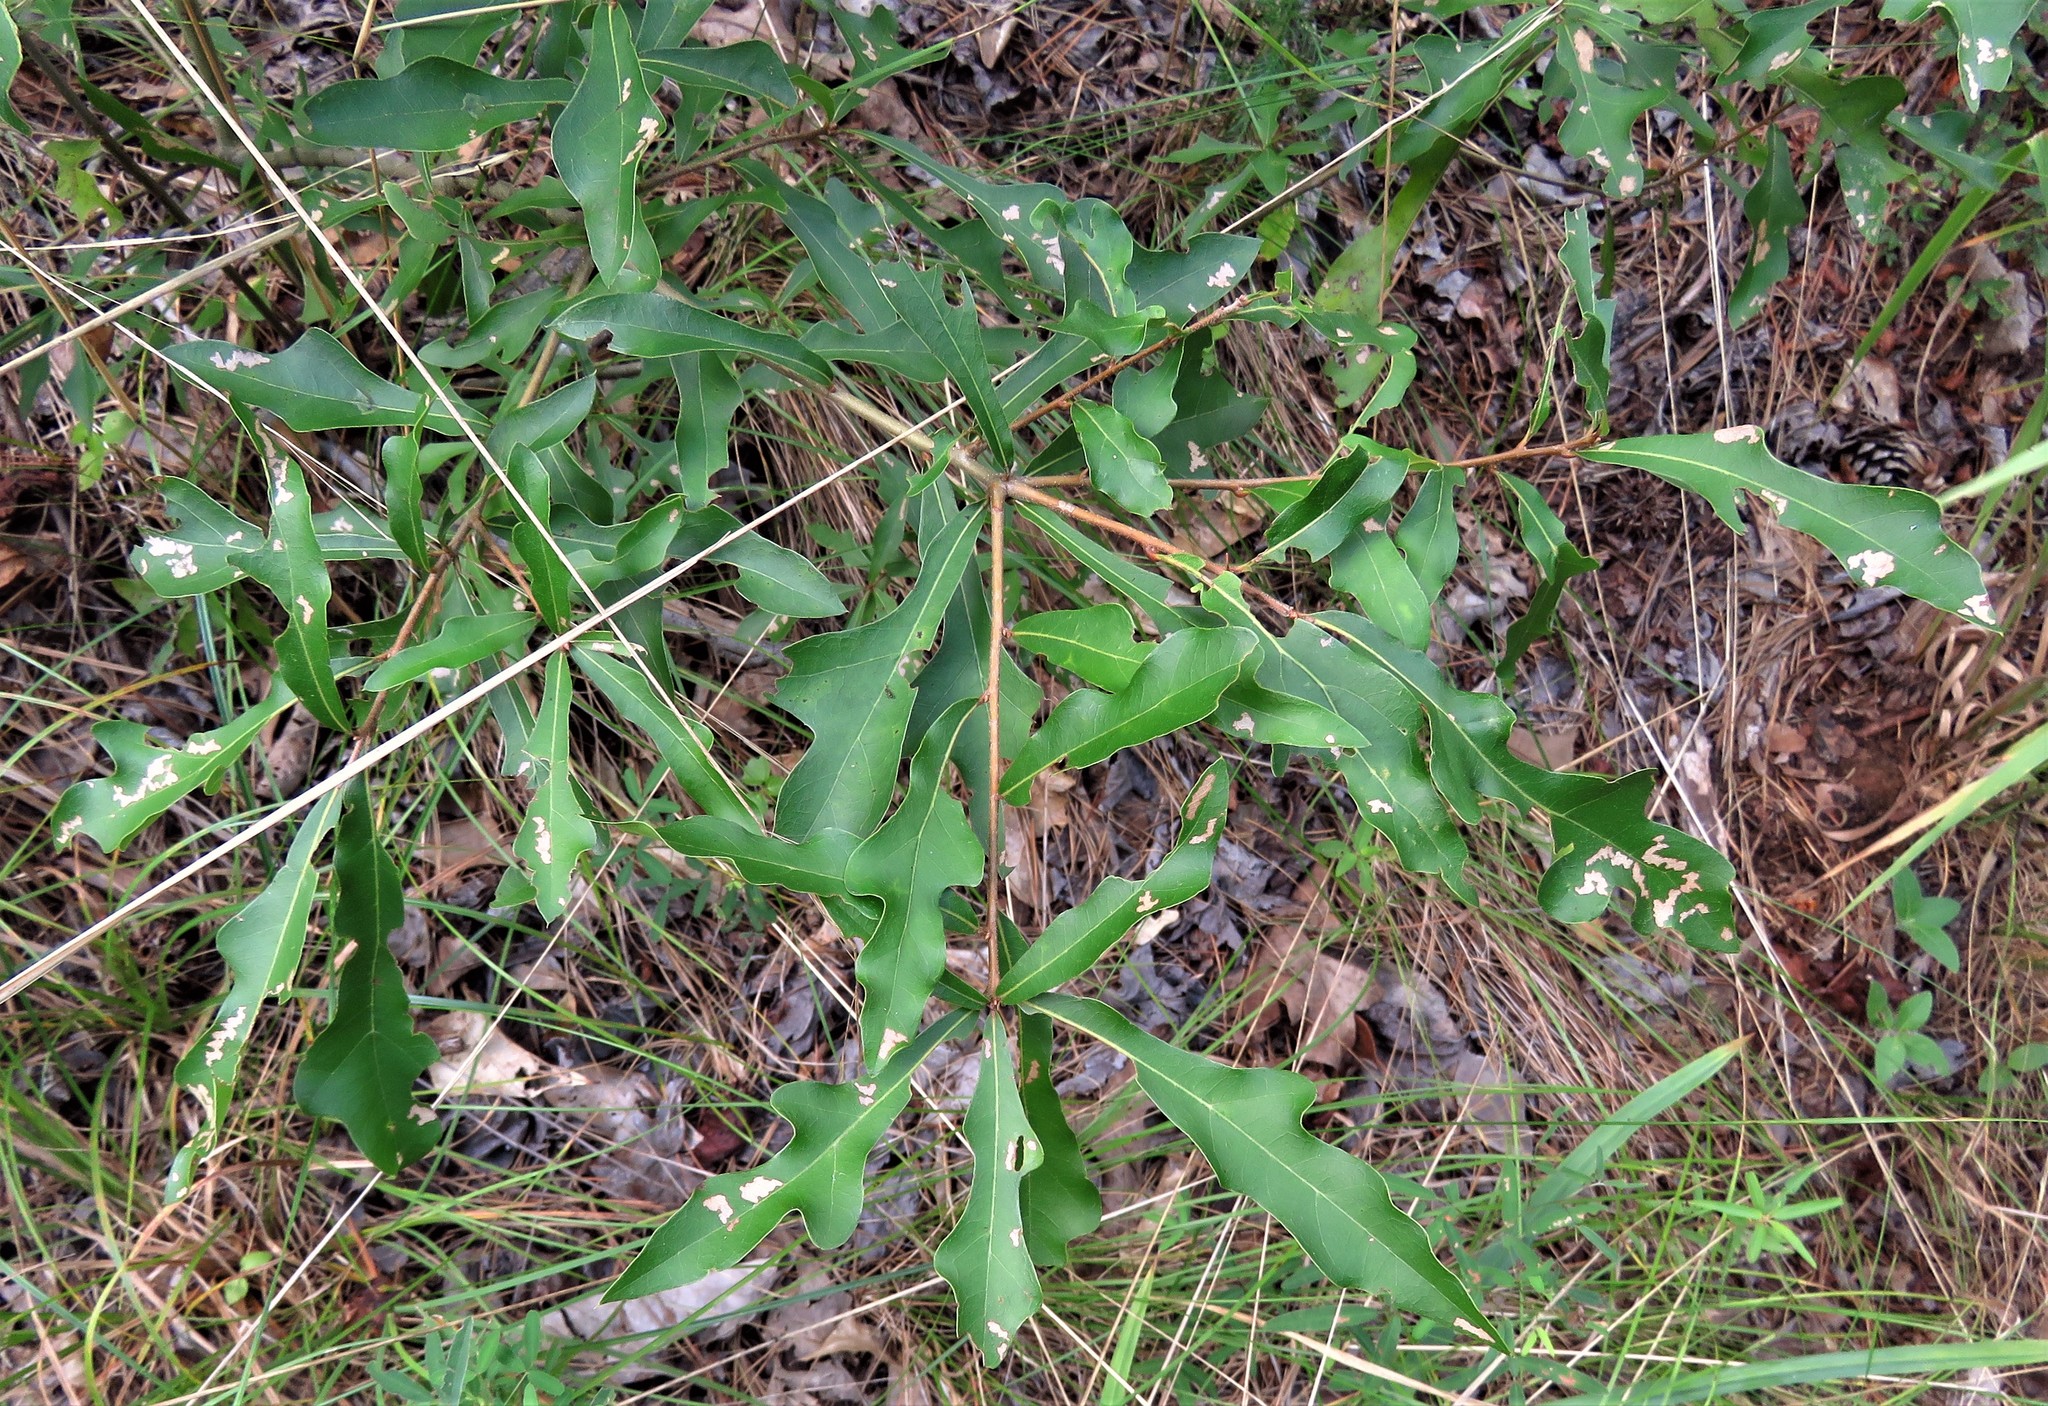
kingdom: Plantae
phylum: Tracheophyta
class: Magnoliopsida
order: Fagales
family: Fagaceae
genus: Quercus
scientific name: Quercus nigra
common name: Water oak
